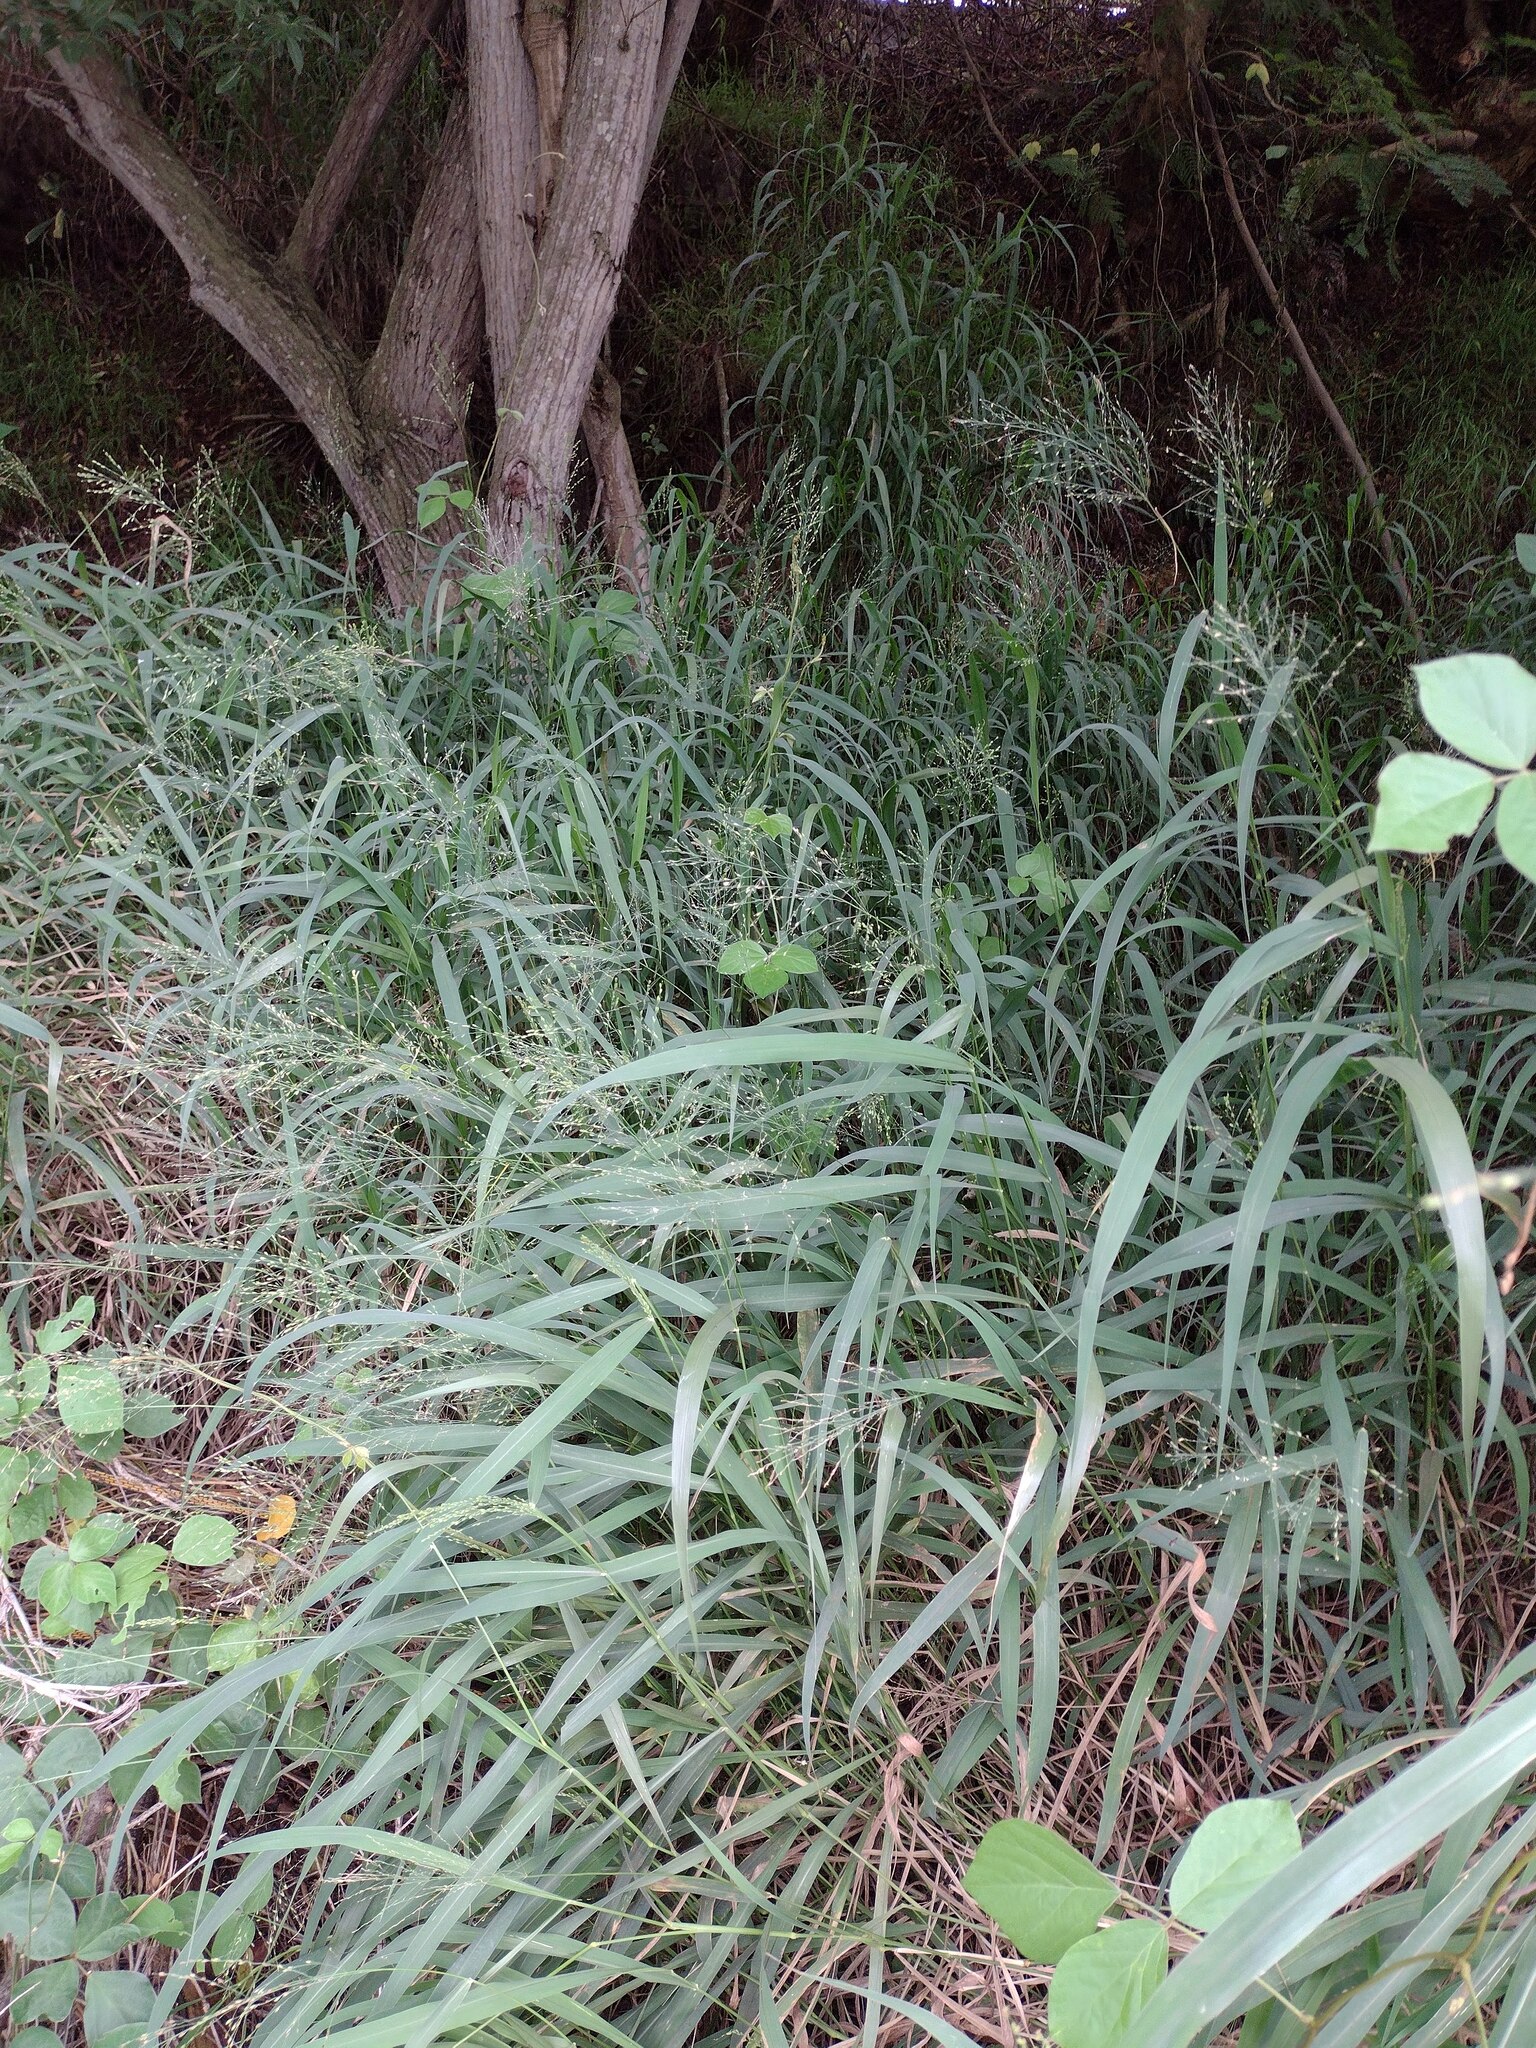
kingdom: Plantae
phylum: Tracheophyta
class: Liliopsida
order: Poales
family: Poaceae
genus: Megathyrsus
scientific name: Megathyrsus maximus
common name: Guineagrass
